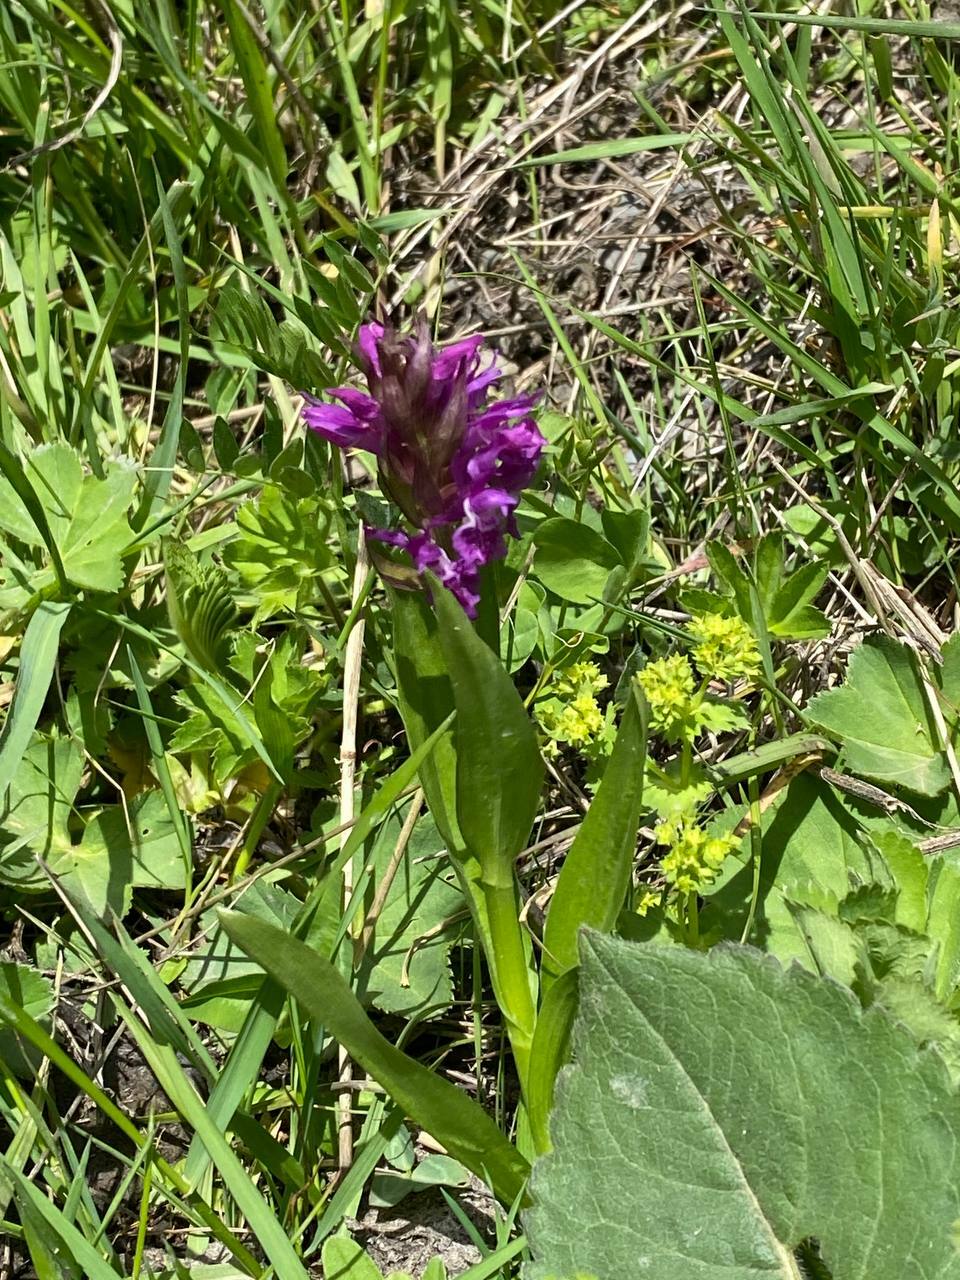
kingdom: Plantae
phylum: Tracheophyta
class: Liliopsida
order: Asparagales
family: Orchidaceae
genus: Dactylorhiza
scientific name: Dactylorhiza euxina
